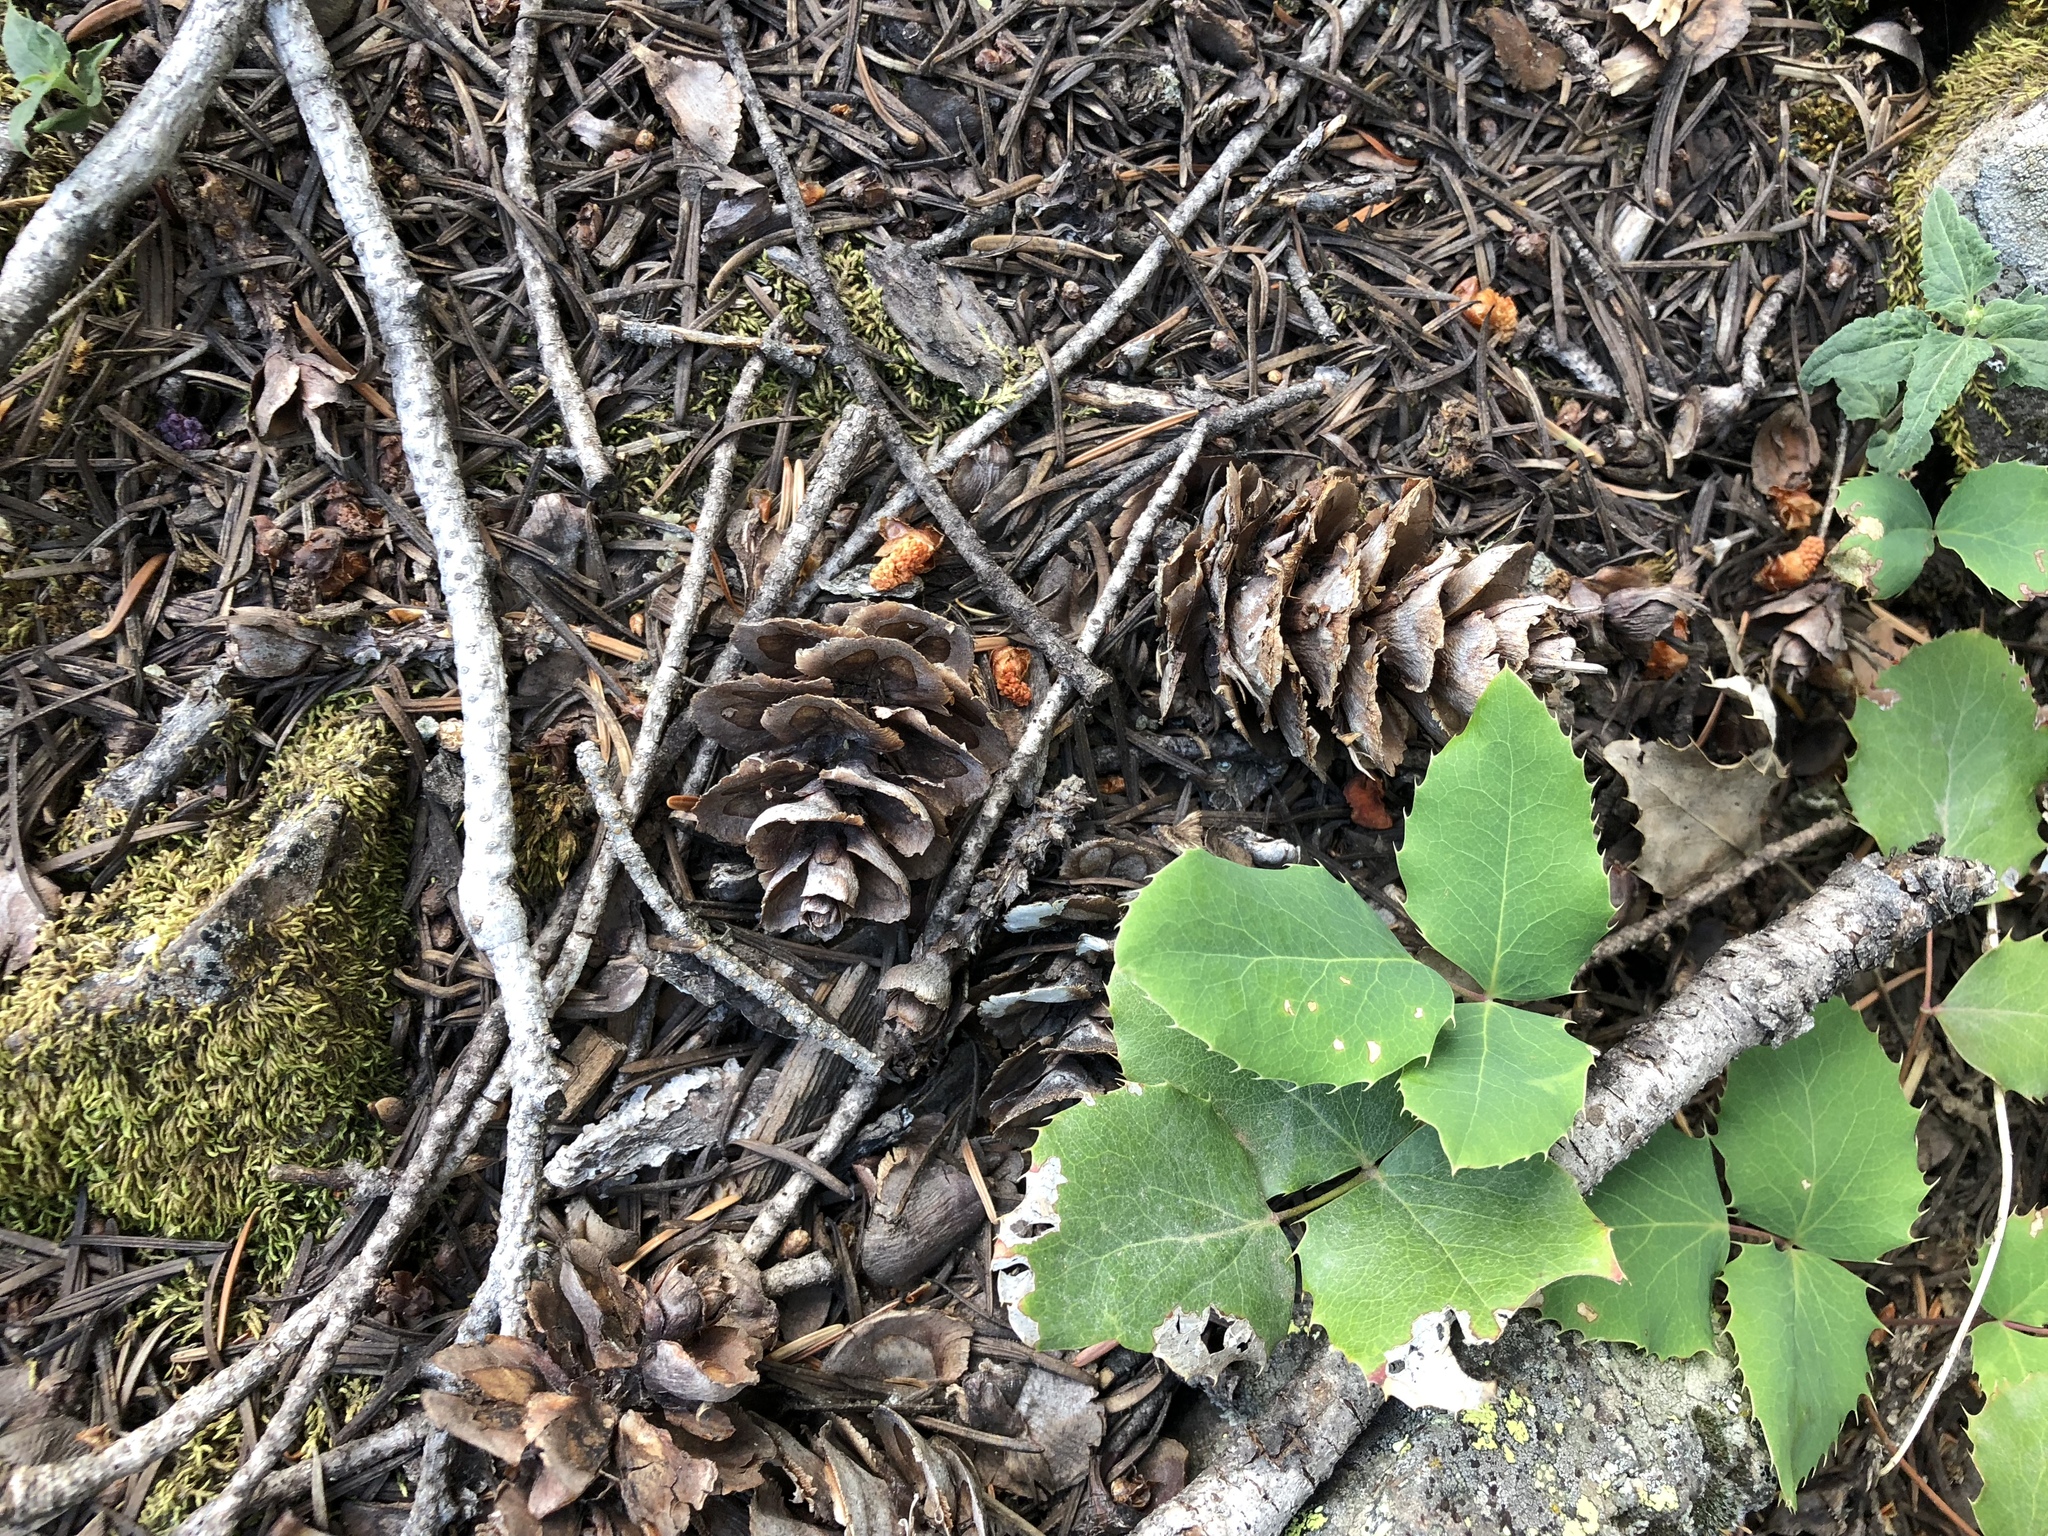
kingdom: Plantae
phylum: Tracheophyta
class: Pinopsida
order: Pinales
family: Pinaceae
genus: Pseudotsuga
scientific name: Pseudotsuga menziesii
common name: Douglas fir
